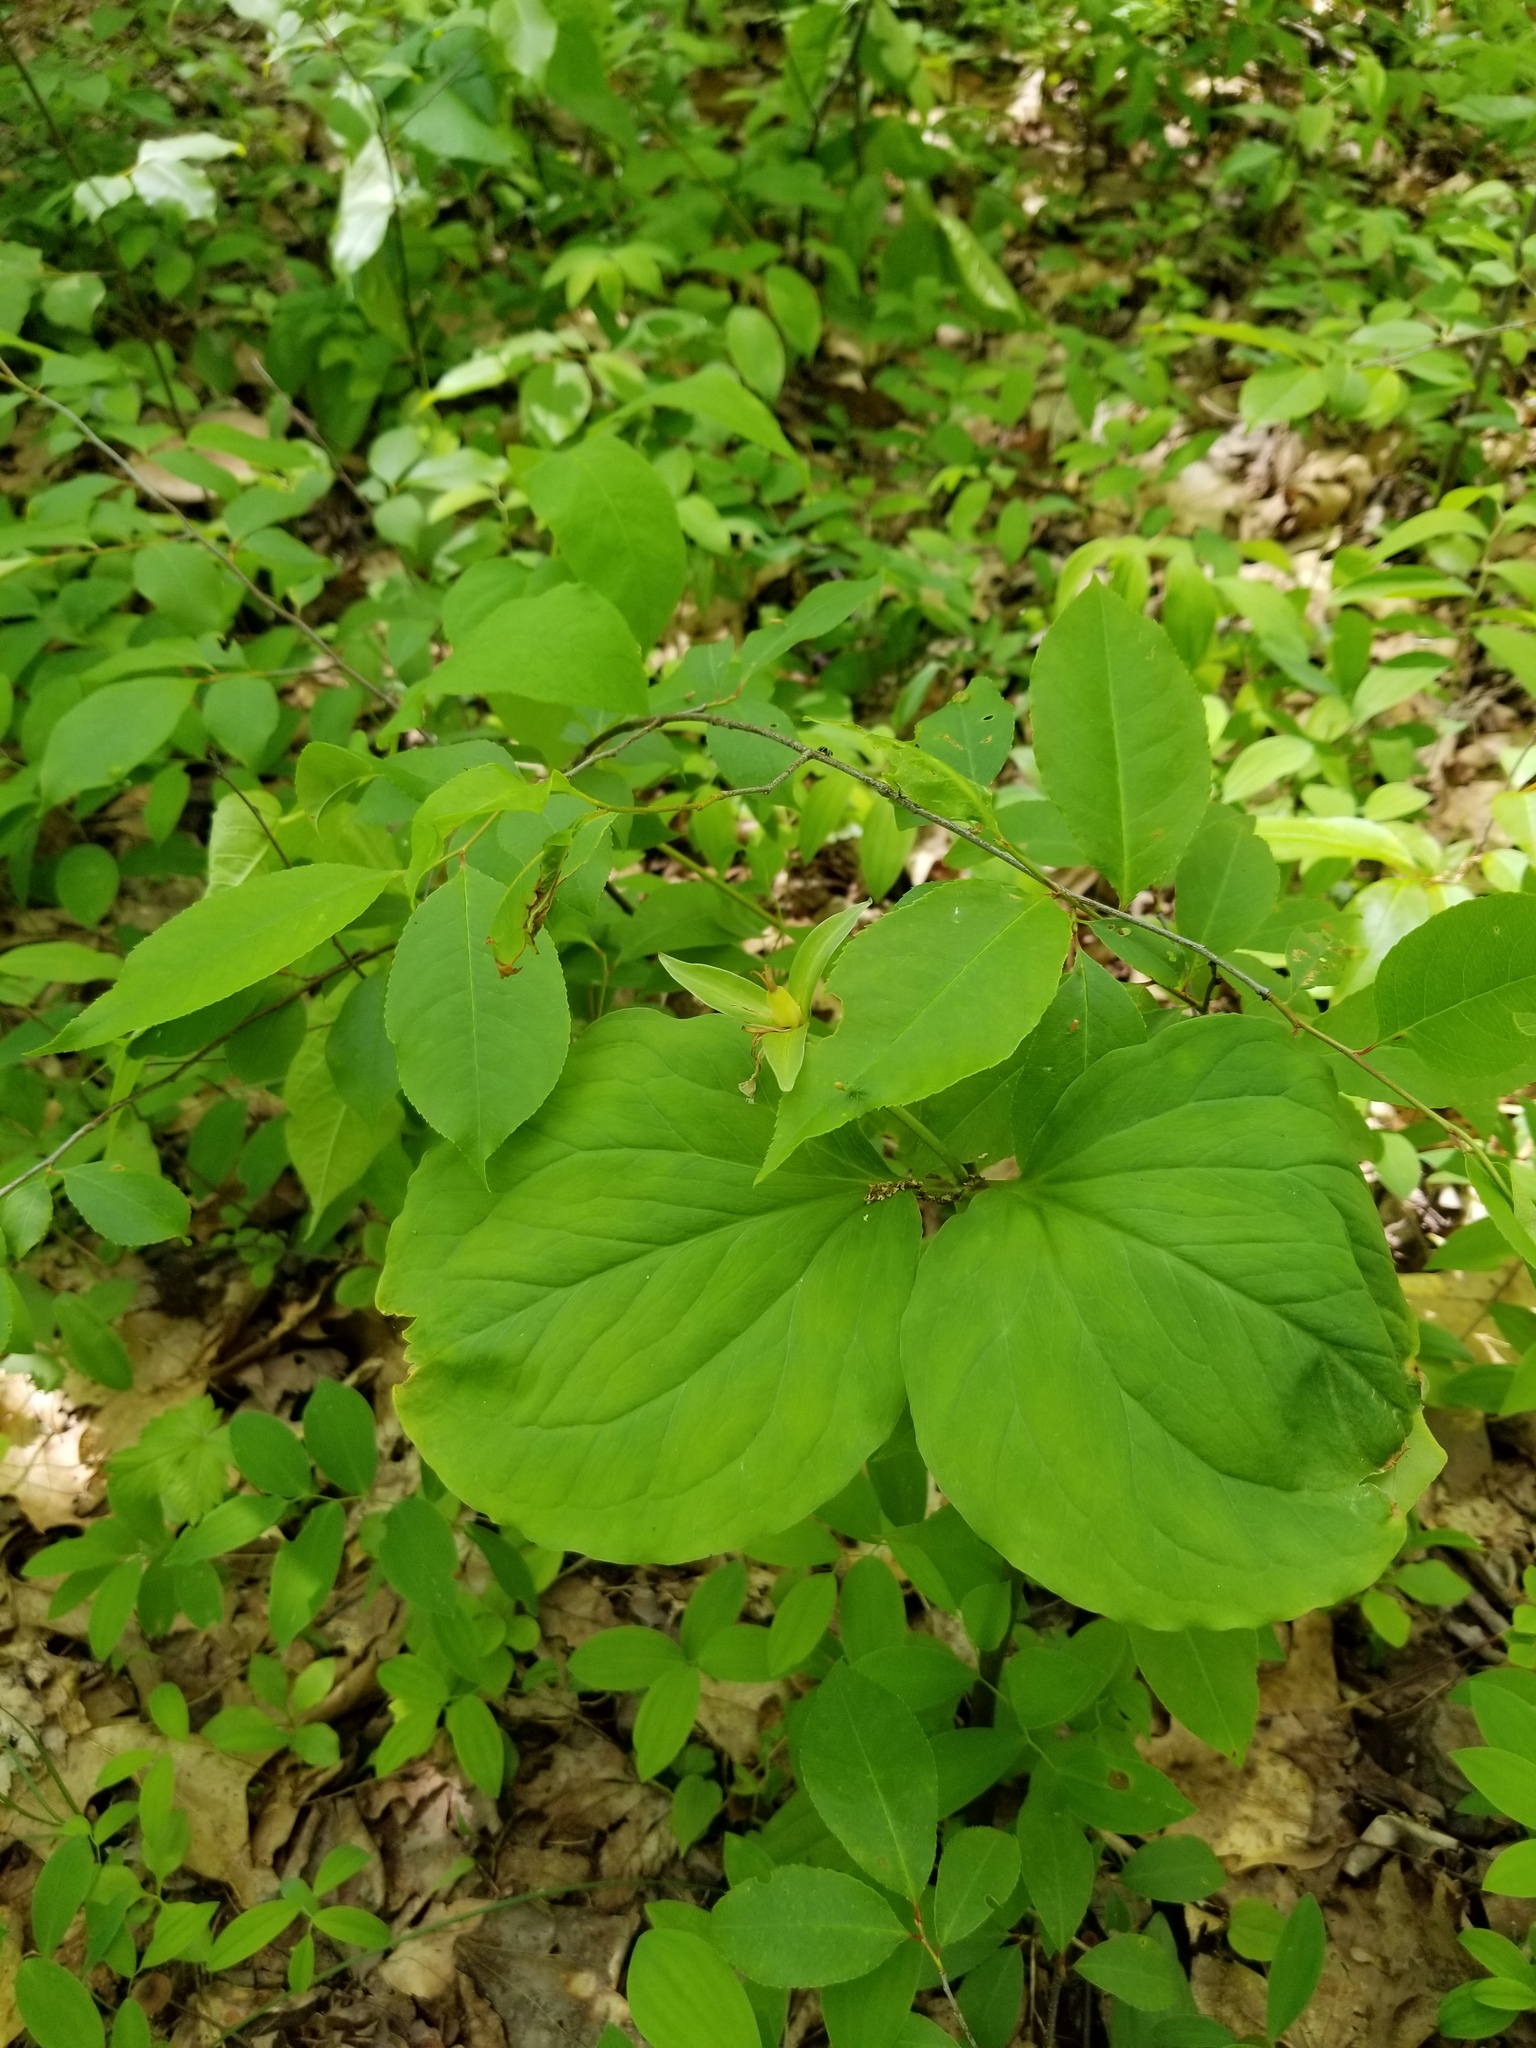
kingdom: Plantae
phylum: Tracheophyta
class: Liliopsida
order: Liliales
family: Melanthiaceae
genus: Trillium
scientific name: Trillium undulatum
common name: Paint trillium
